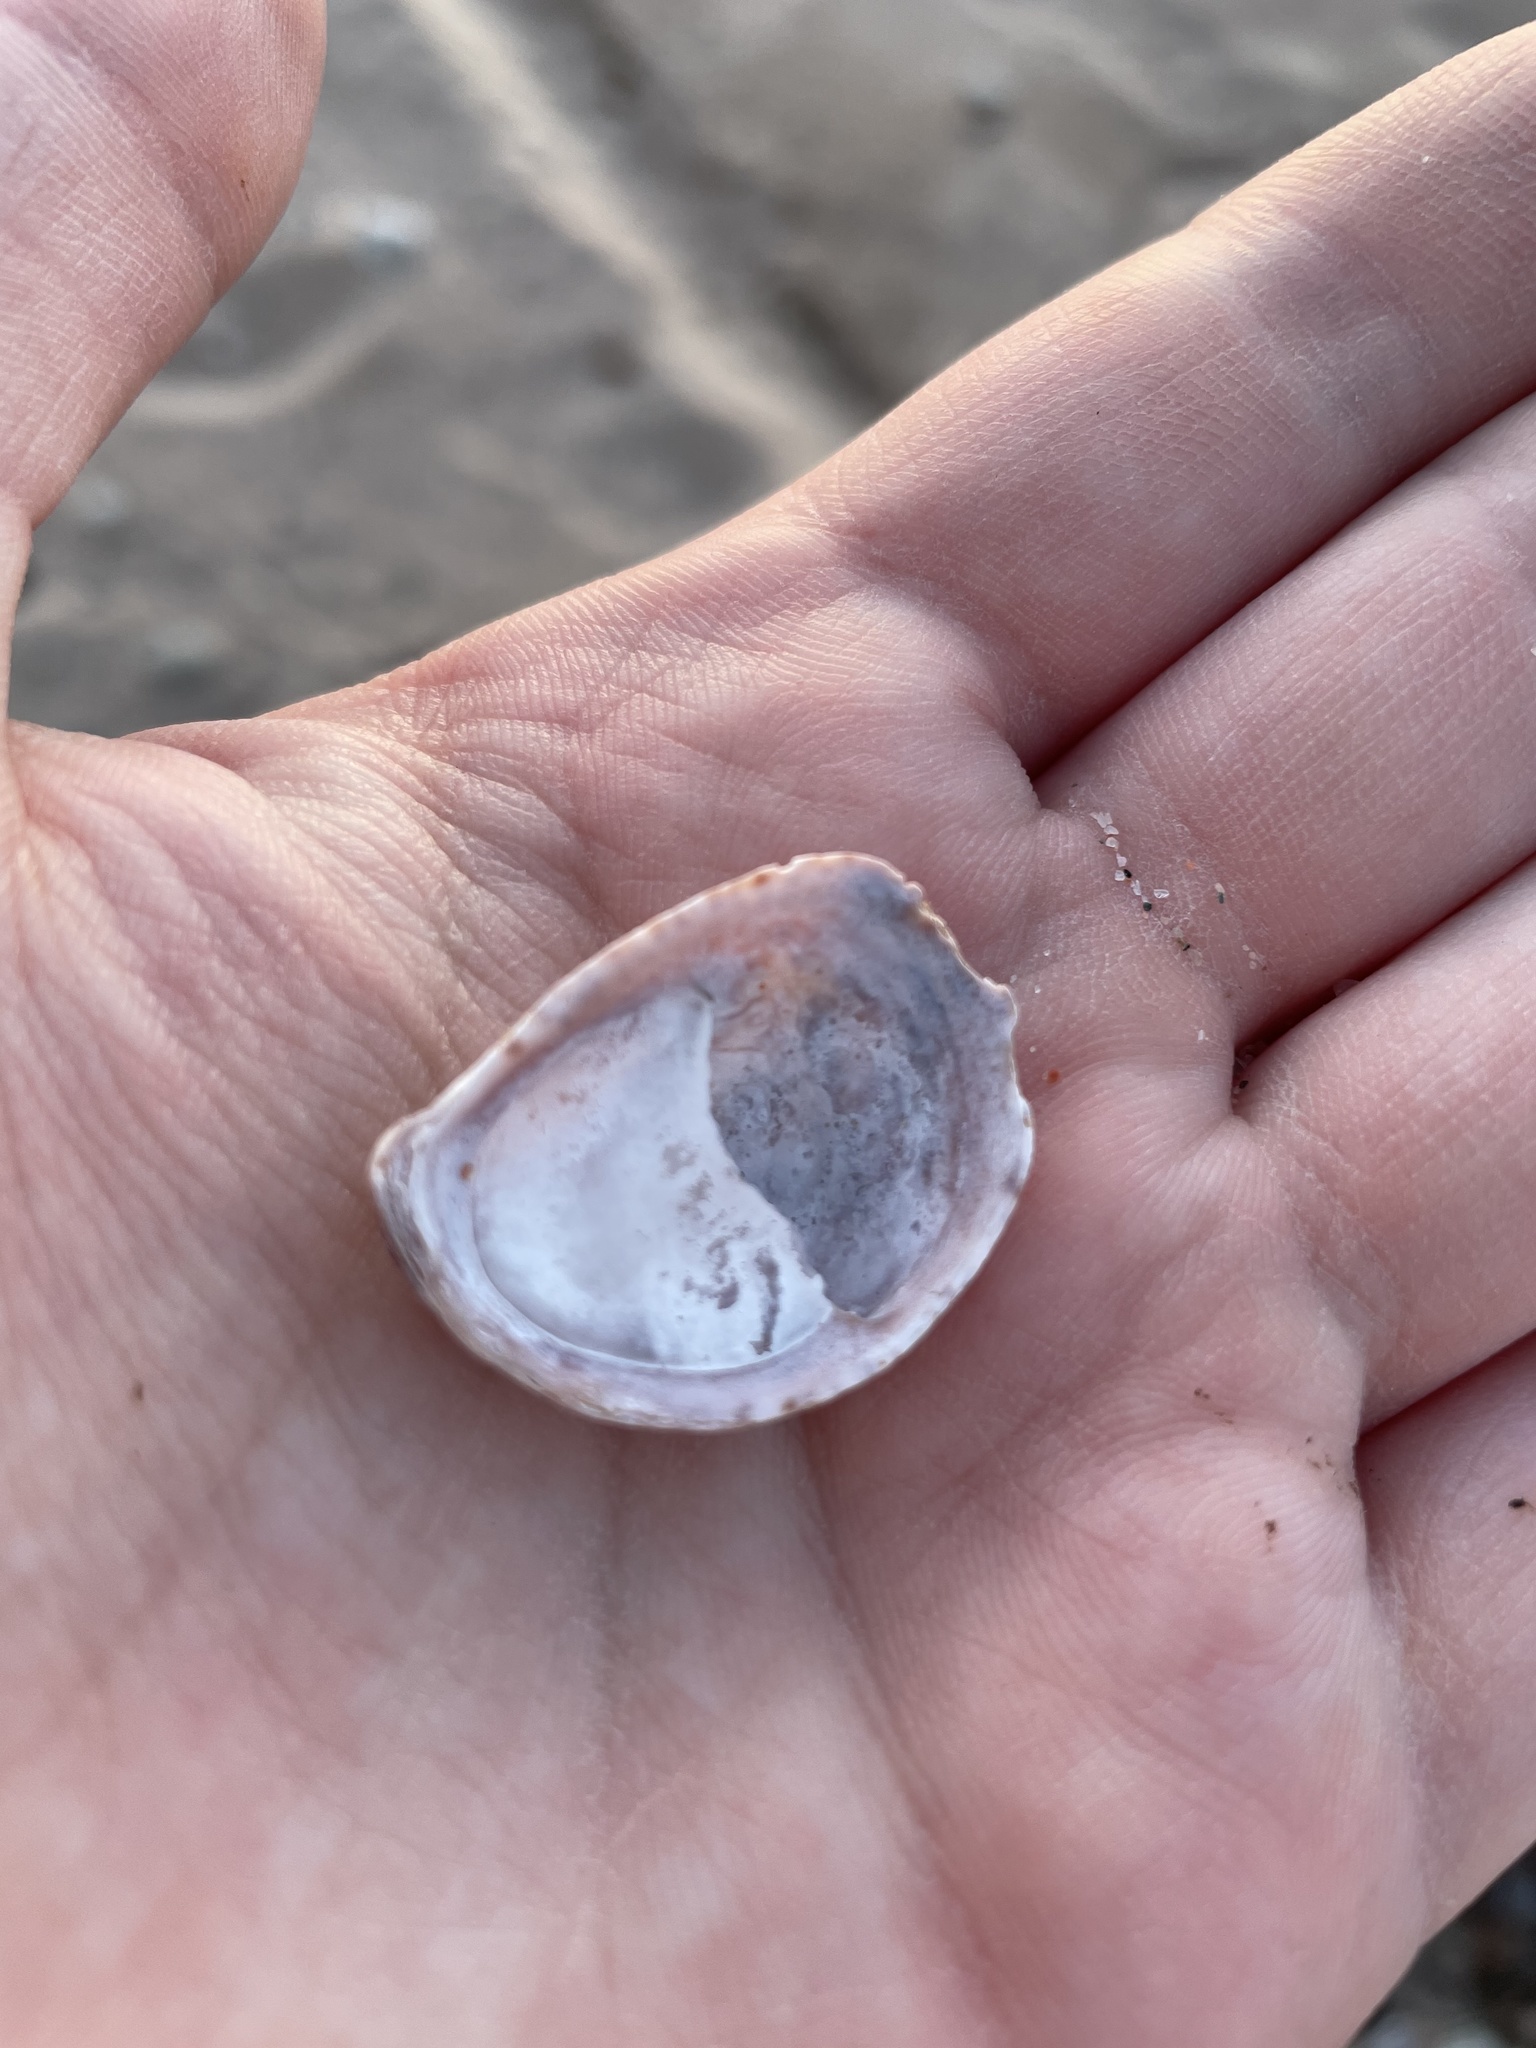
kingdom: Animalia
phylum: Mollusca
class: Gastropoda
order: Littorinimorpha
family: Calyptraeidae
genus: Crepidula
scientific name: Crepidula fornicata
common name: Slipper limpet
